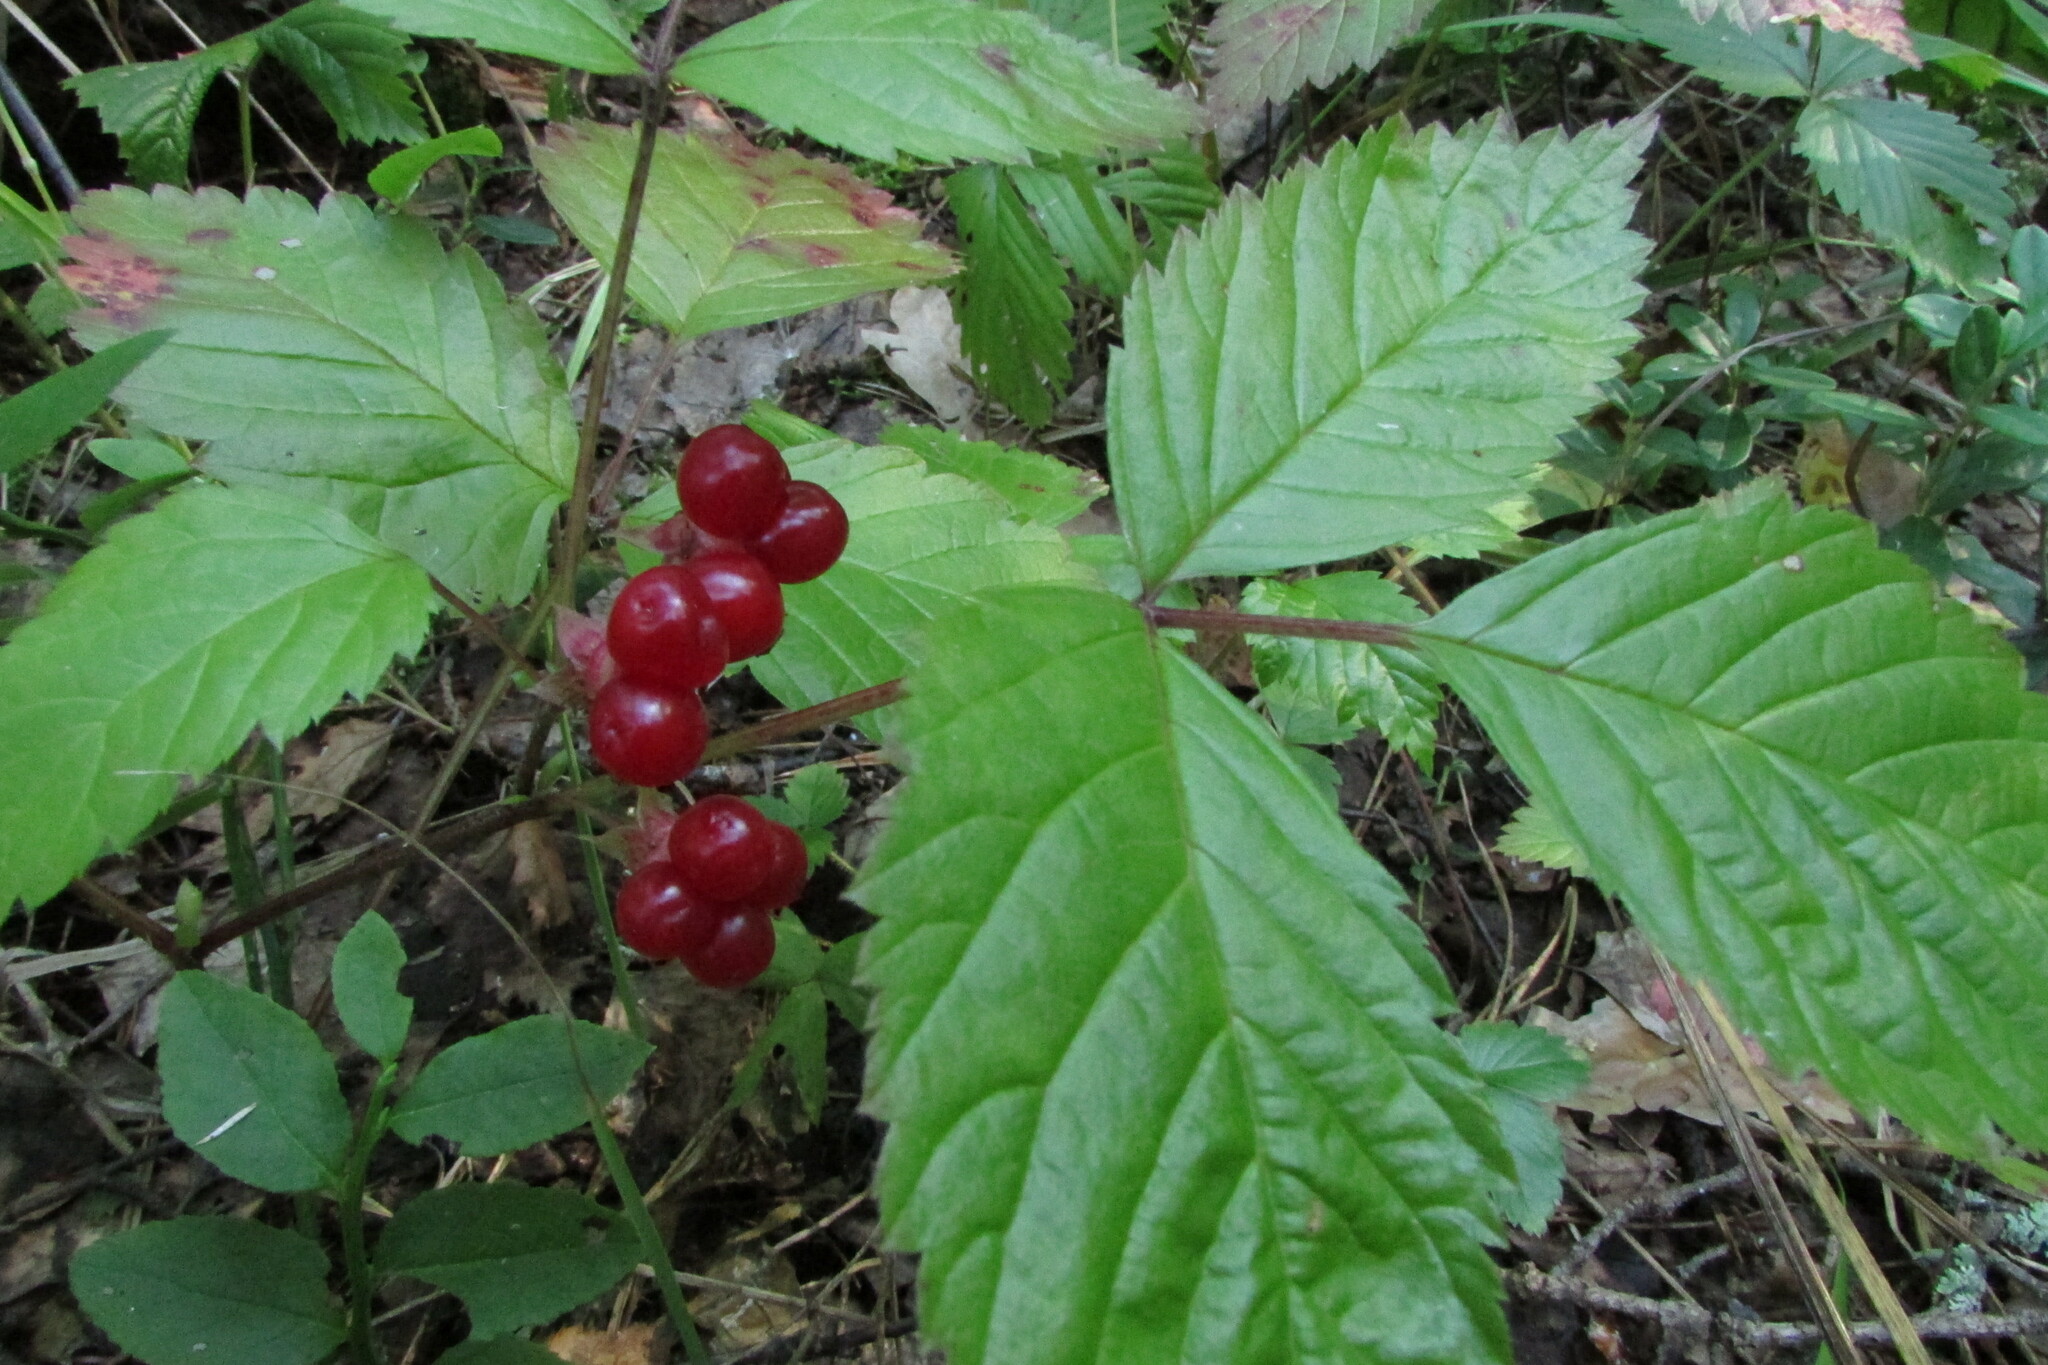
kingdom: Plantae
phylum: Tracheophyta
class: Magnoliopsida
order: Rosales
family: Rosaceae
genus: Rubus
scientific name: Rubus saxatilis
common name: Stone bramble
